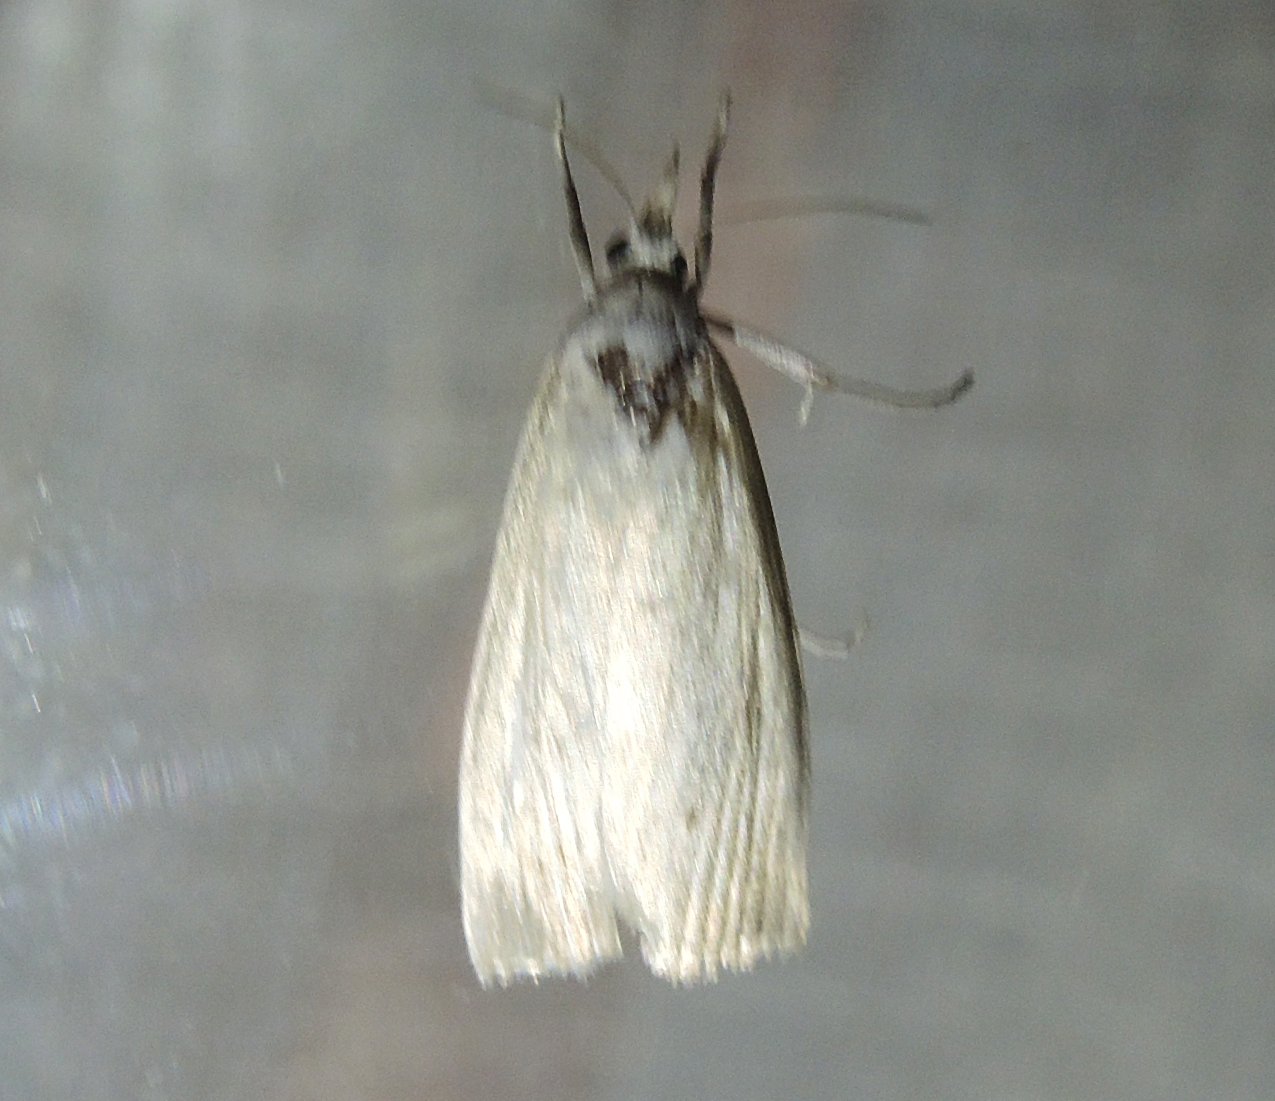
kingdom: Animalia
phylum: Arthropoda
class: Insecta
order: Lepidoptera
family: Crambidae
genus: Calamotropha
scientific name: Calamotropha paludella
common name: Bulrush veneer
